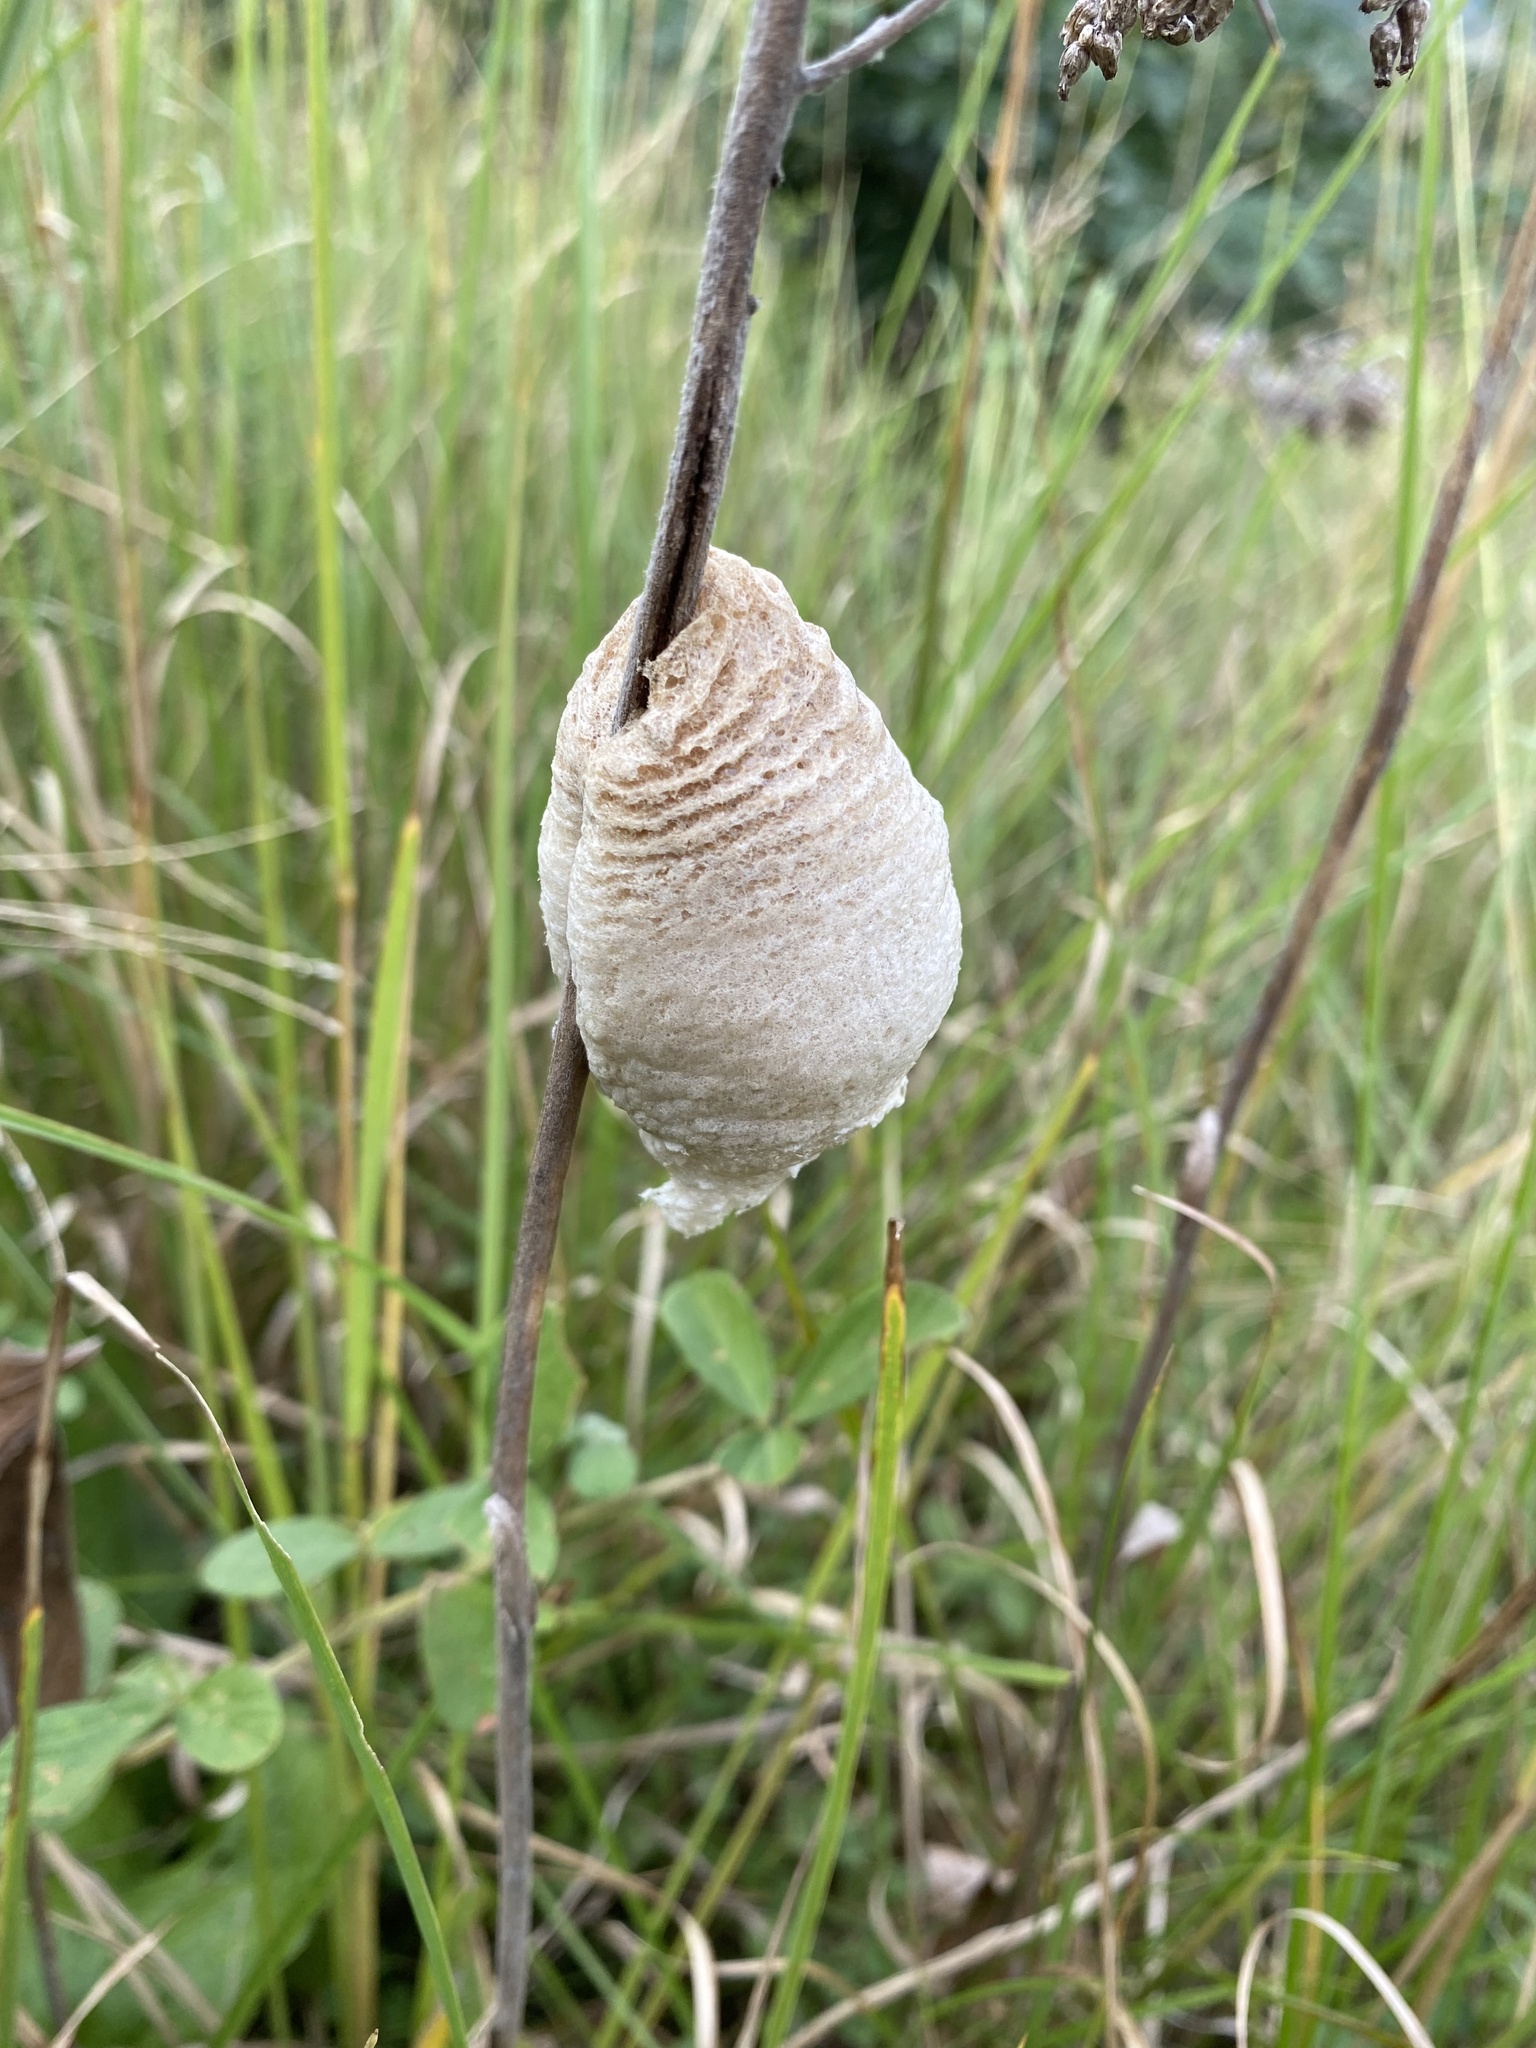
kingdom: Animalia
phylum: Arthropoda
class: Insecta
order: Mantodea
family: Mantidae
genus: Tenodera
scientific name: Tenodera superstitiosa
